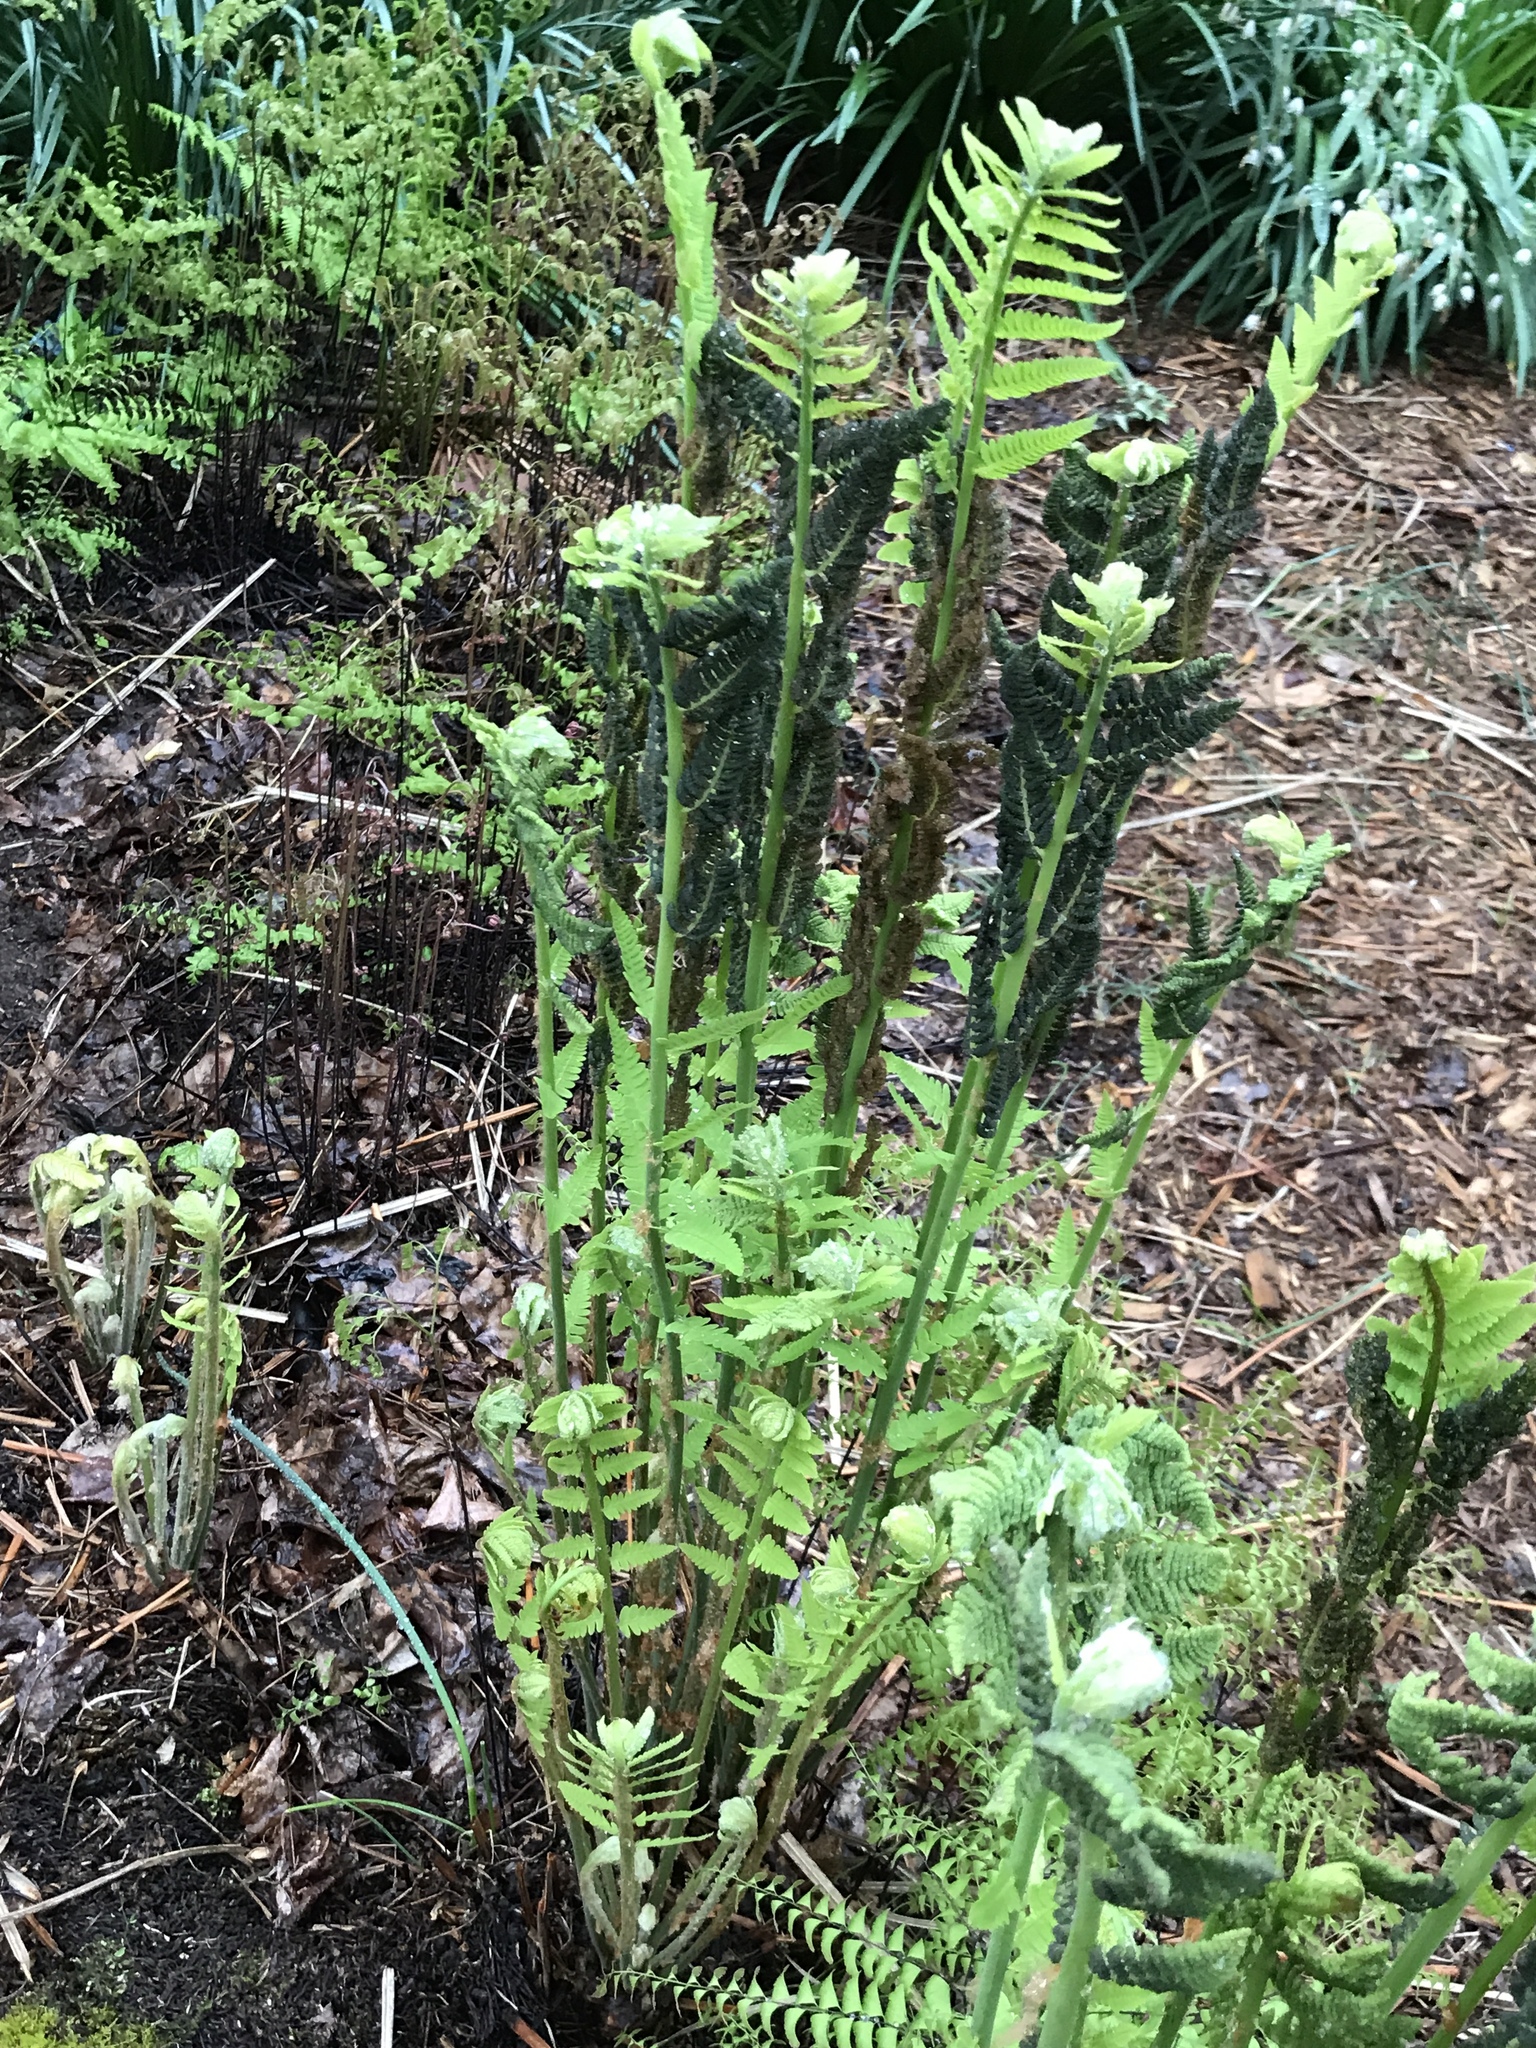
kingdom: Plantae
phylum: Tracheophyta
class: Polypodiopsida
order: Osmundales
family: Osmundaceae
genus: Claytosmunda
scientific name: Claytosmunda claytoniana
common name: Clayton's fern
